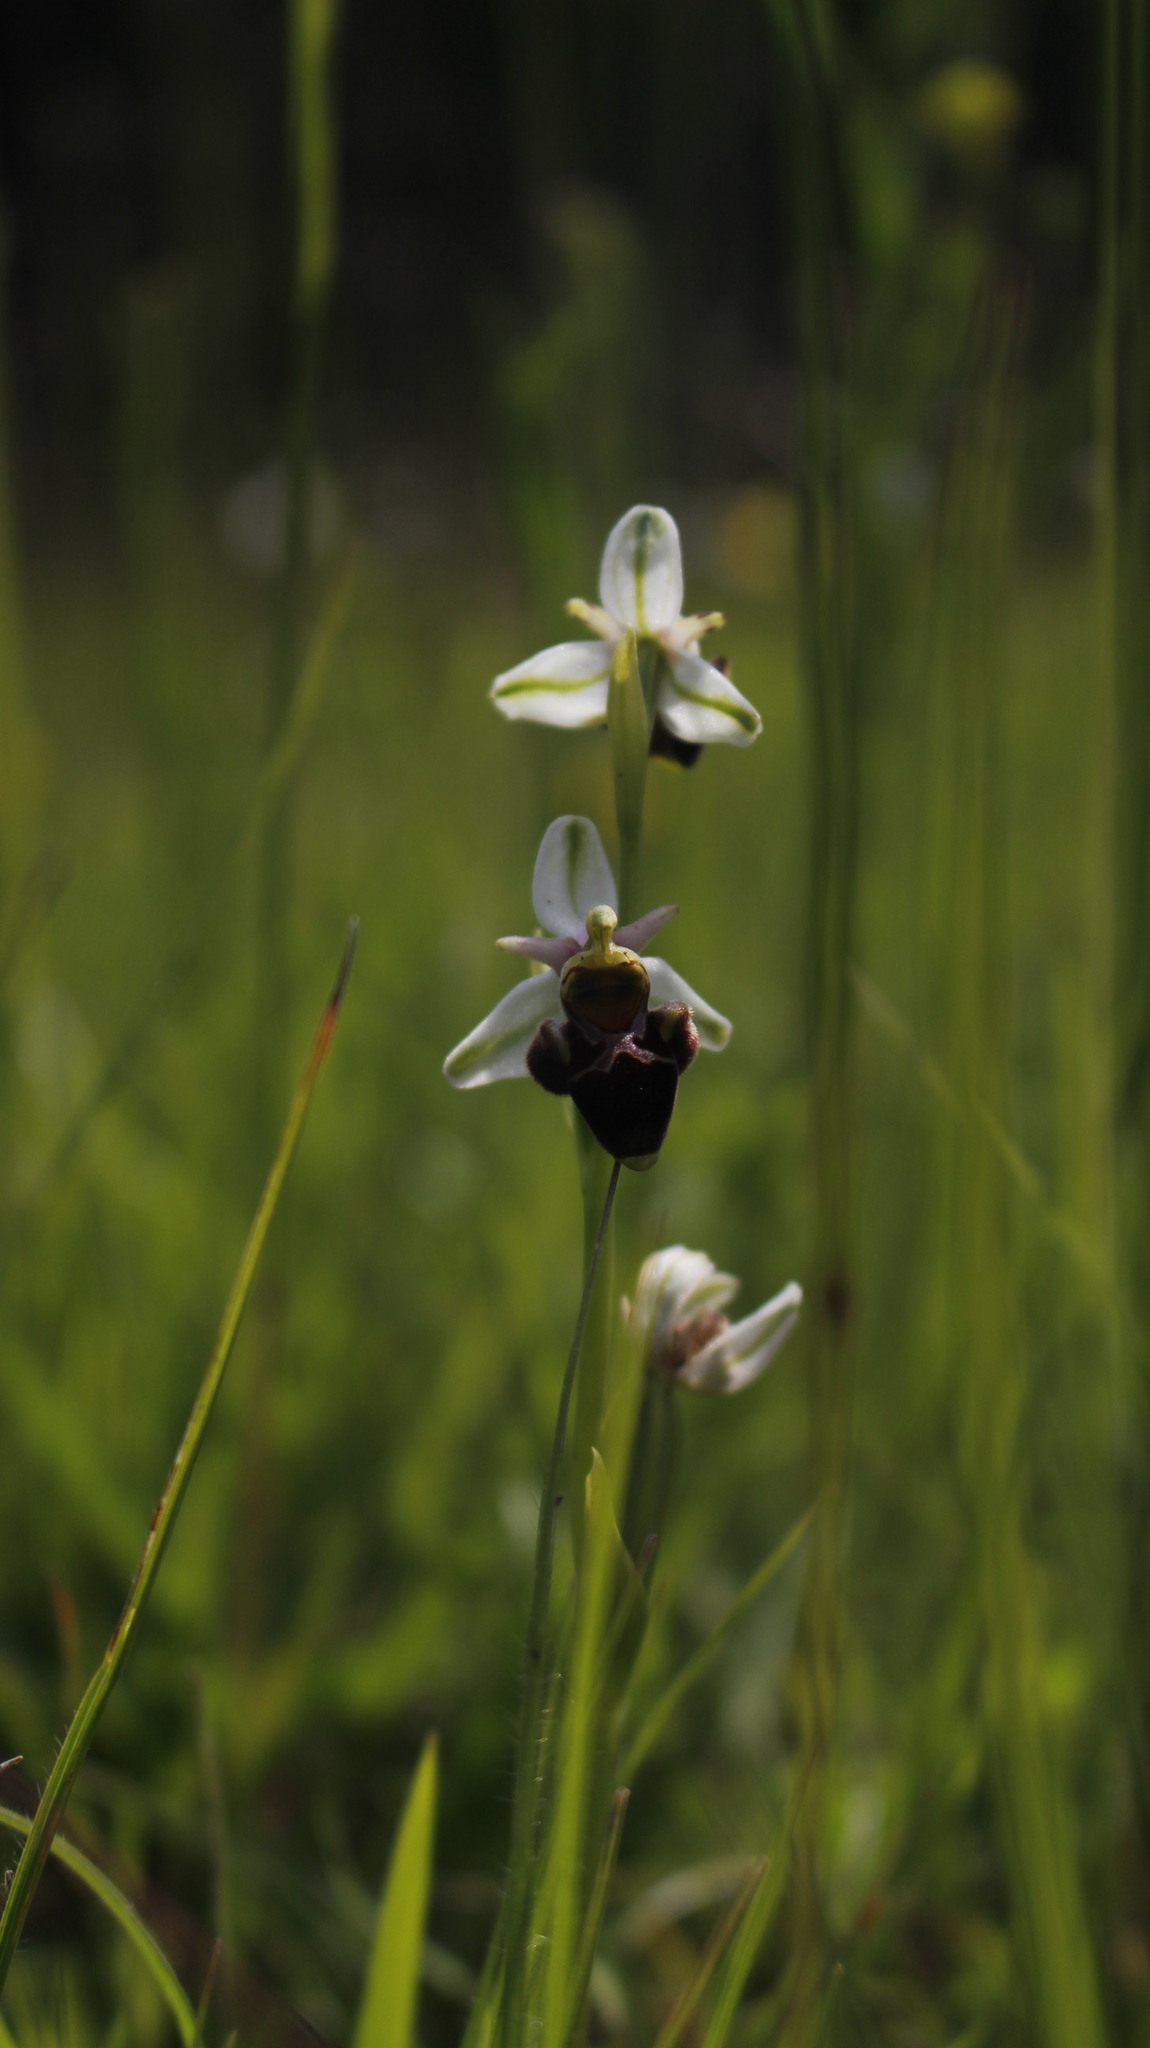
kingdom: Plantae
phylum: Tracheophyta
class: Liliopsida
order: Asparagales
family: Orchidaceae
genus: Ophrys
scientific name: Ophrys scolopax
